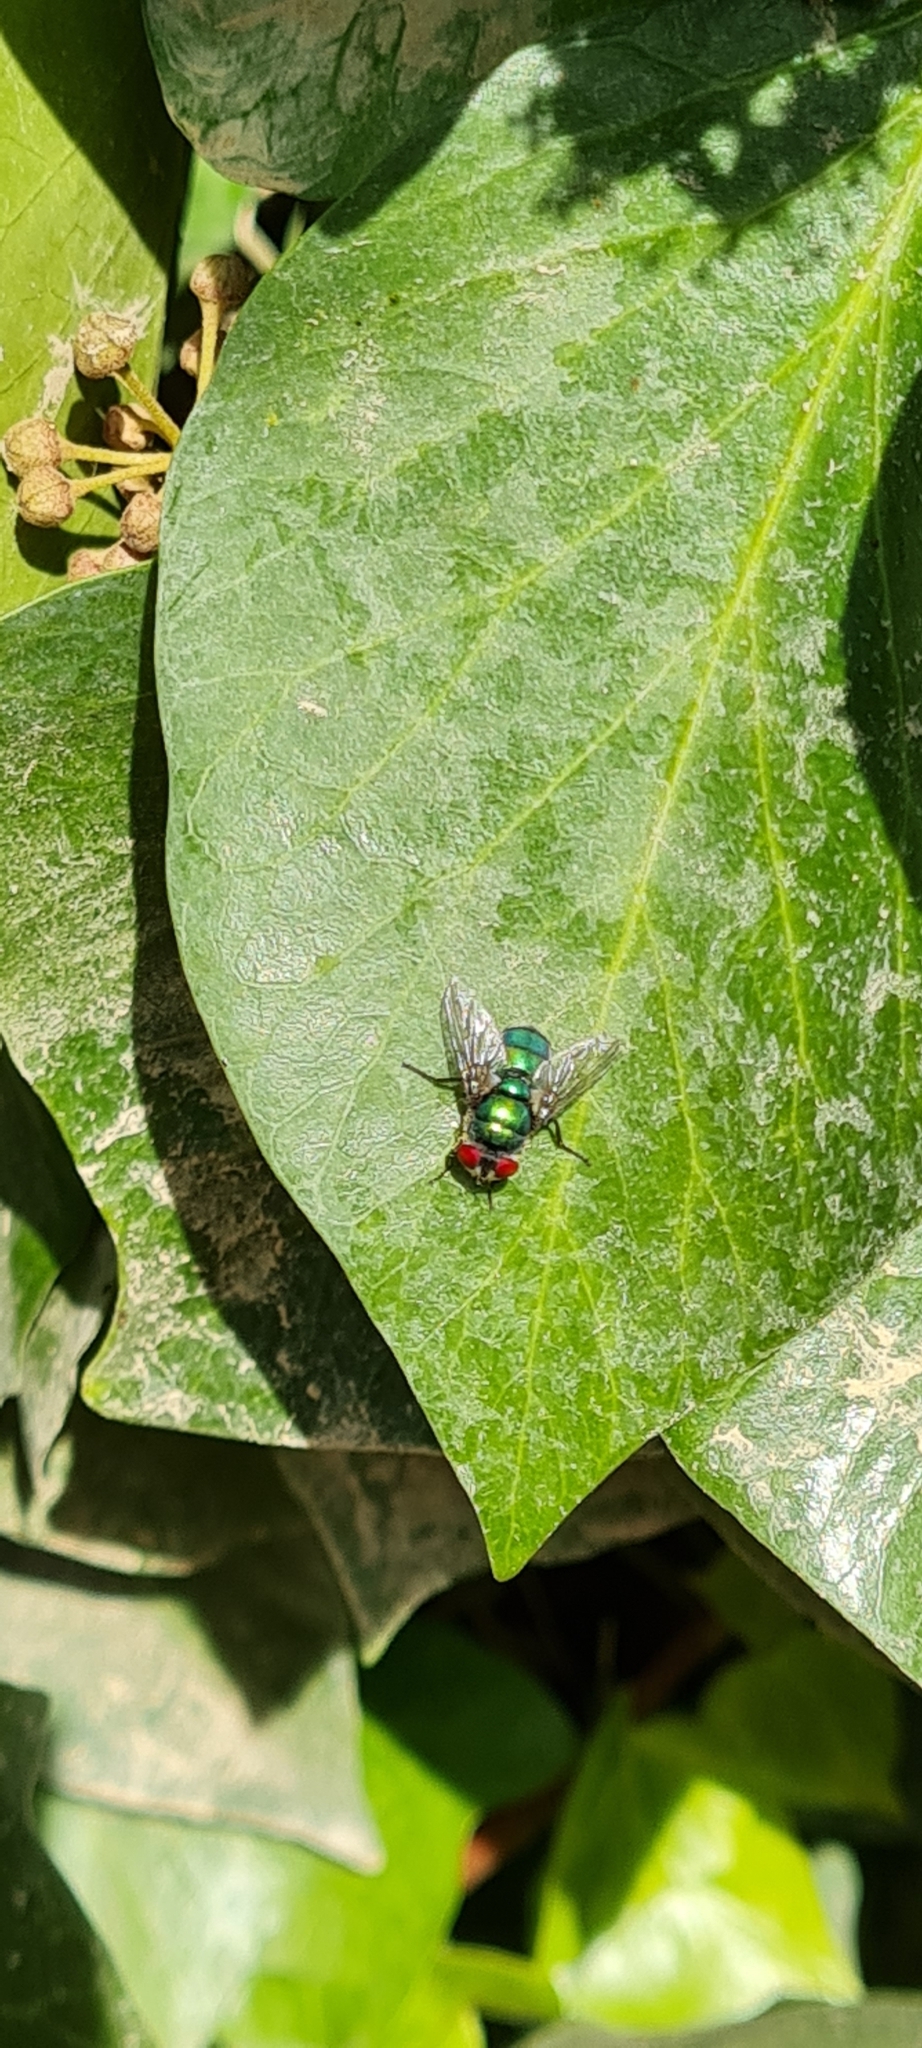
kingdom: Animalia
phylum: Arthropoda
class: Insecta
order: Diptera
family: Calliphoridae
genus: Chrysomya
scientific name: Chrysomya albiceps
